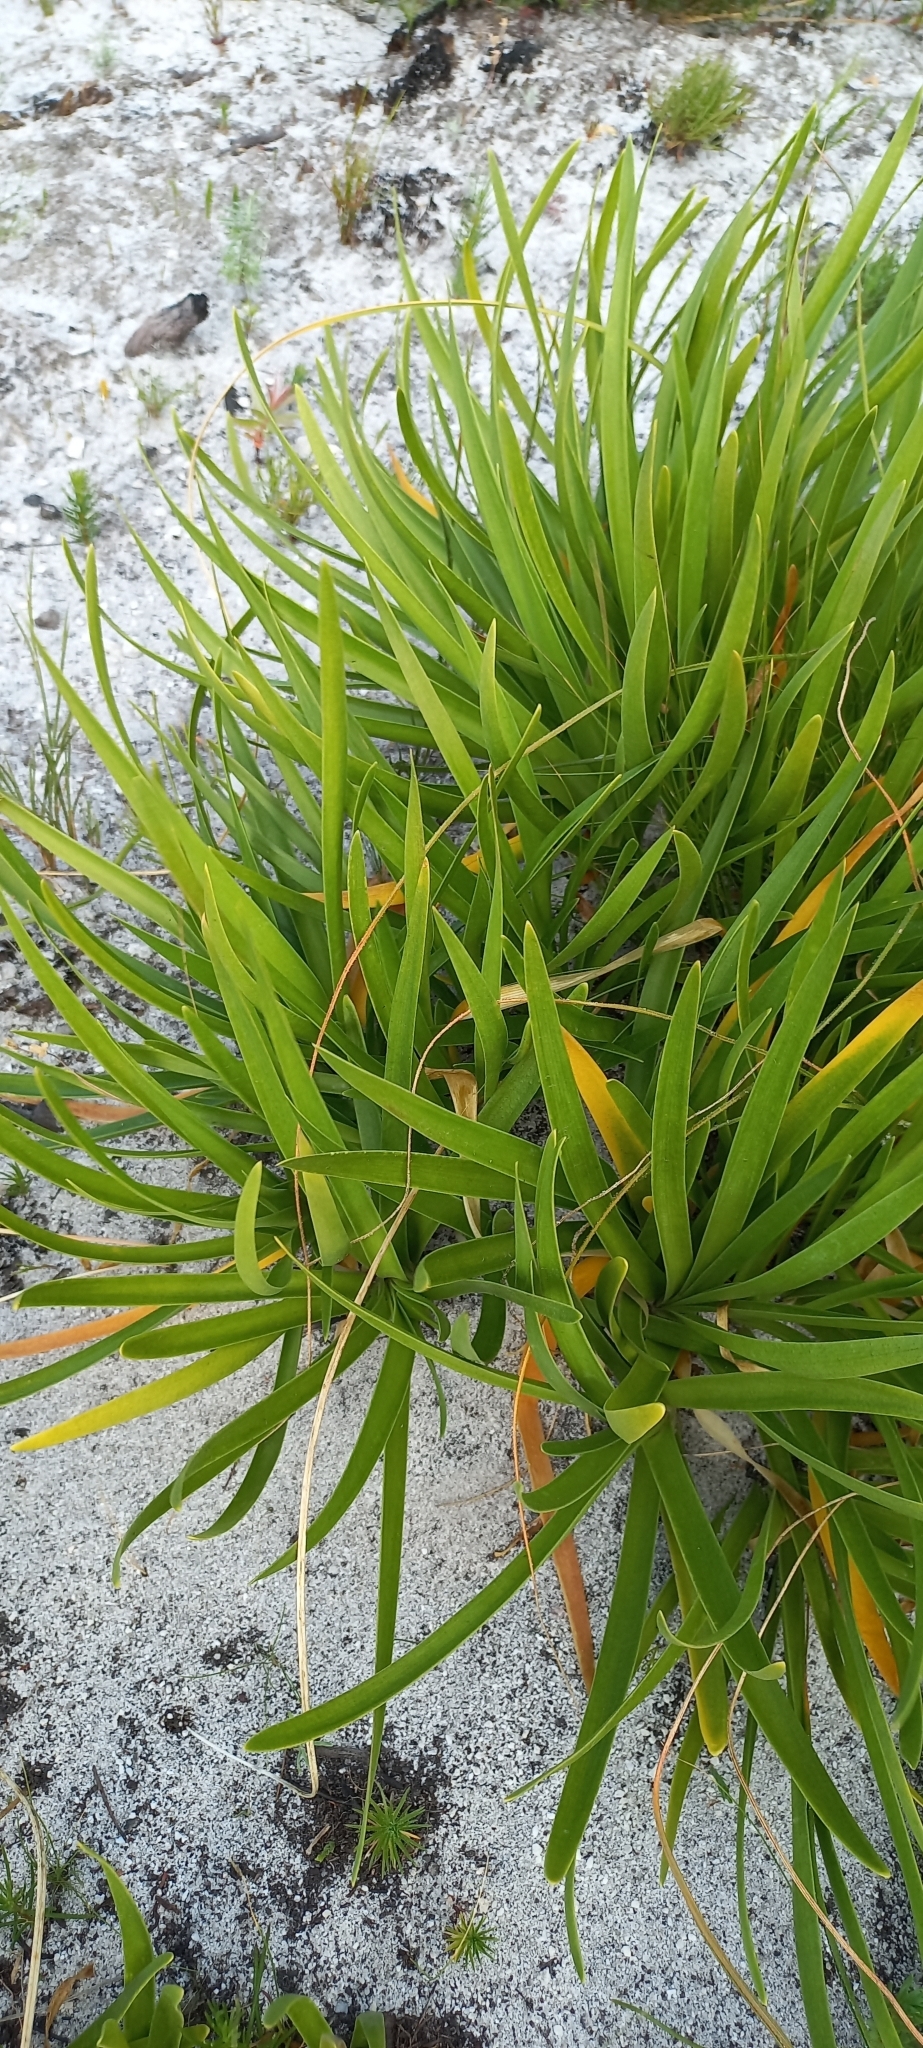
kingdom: Plantae
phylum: Tracheophyta
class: Liliopsida
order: Asparagales
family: Amaryllidaceae
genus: Agapanthus
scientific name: Agapanthus africanus
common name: Lily-of-the-nile
